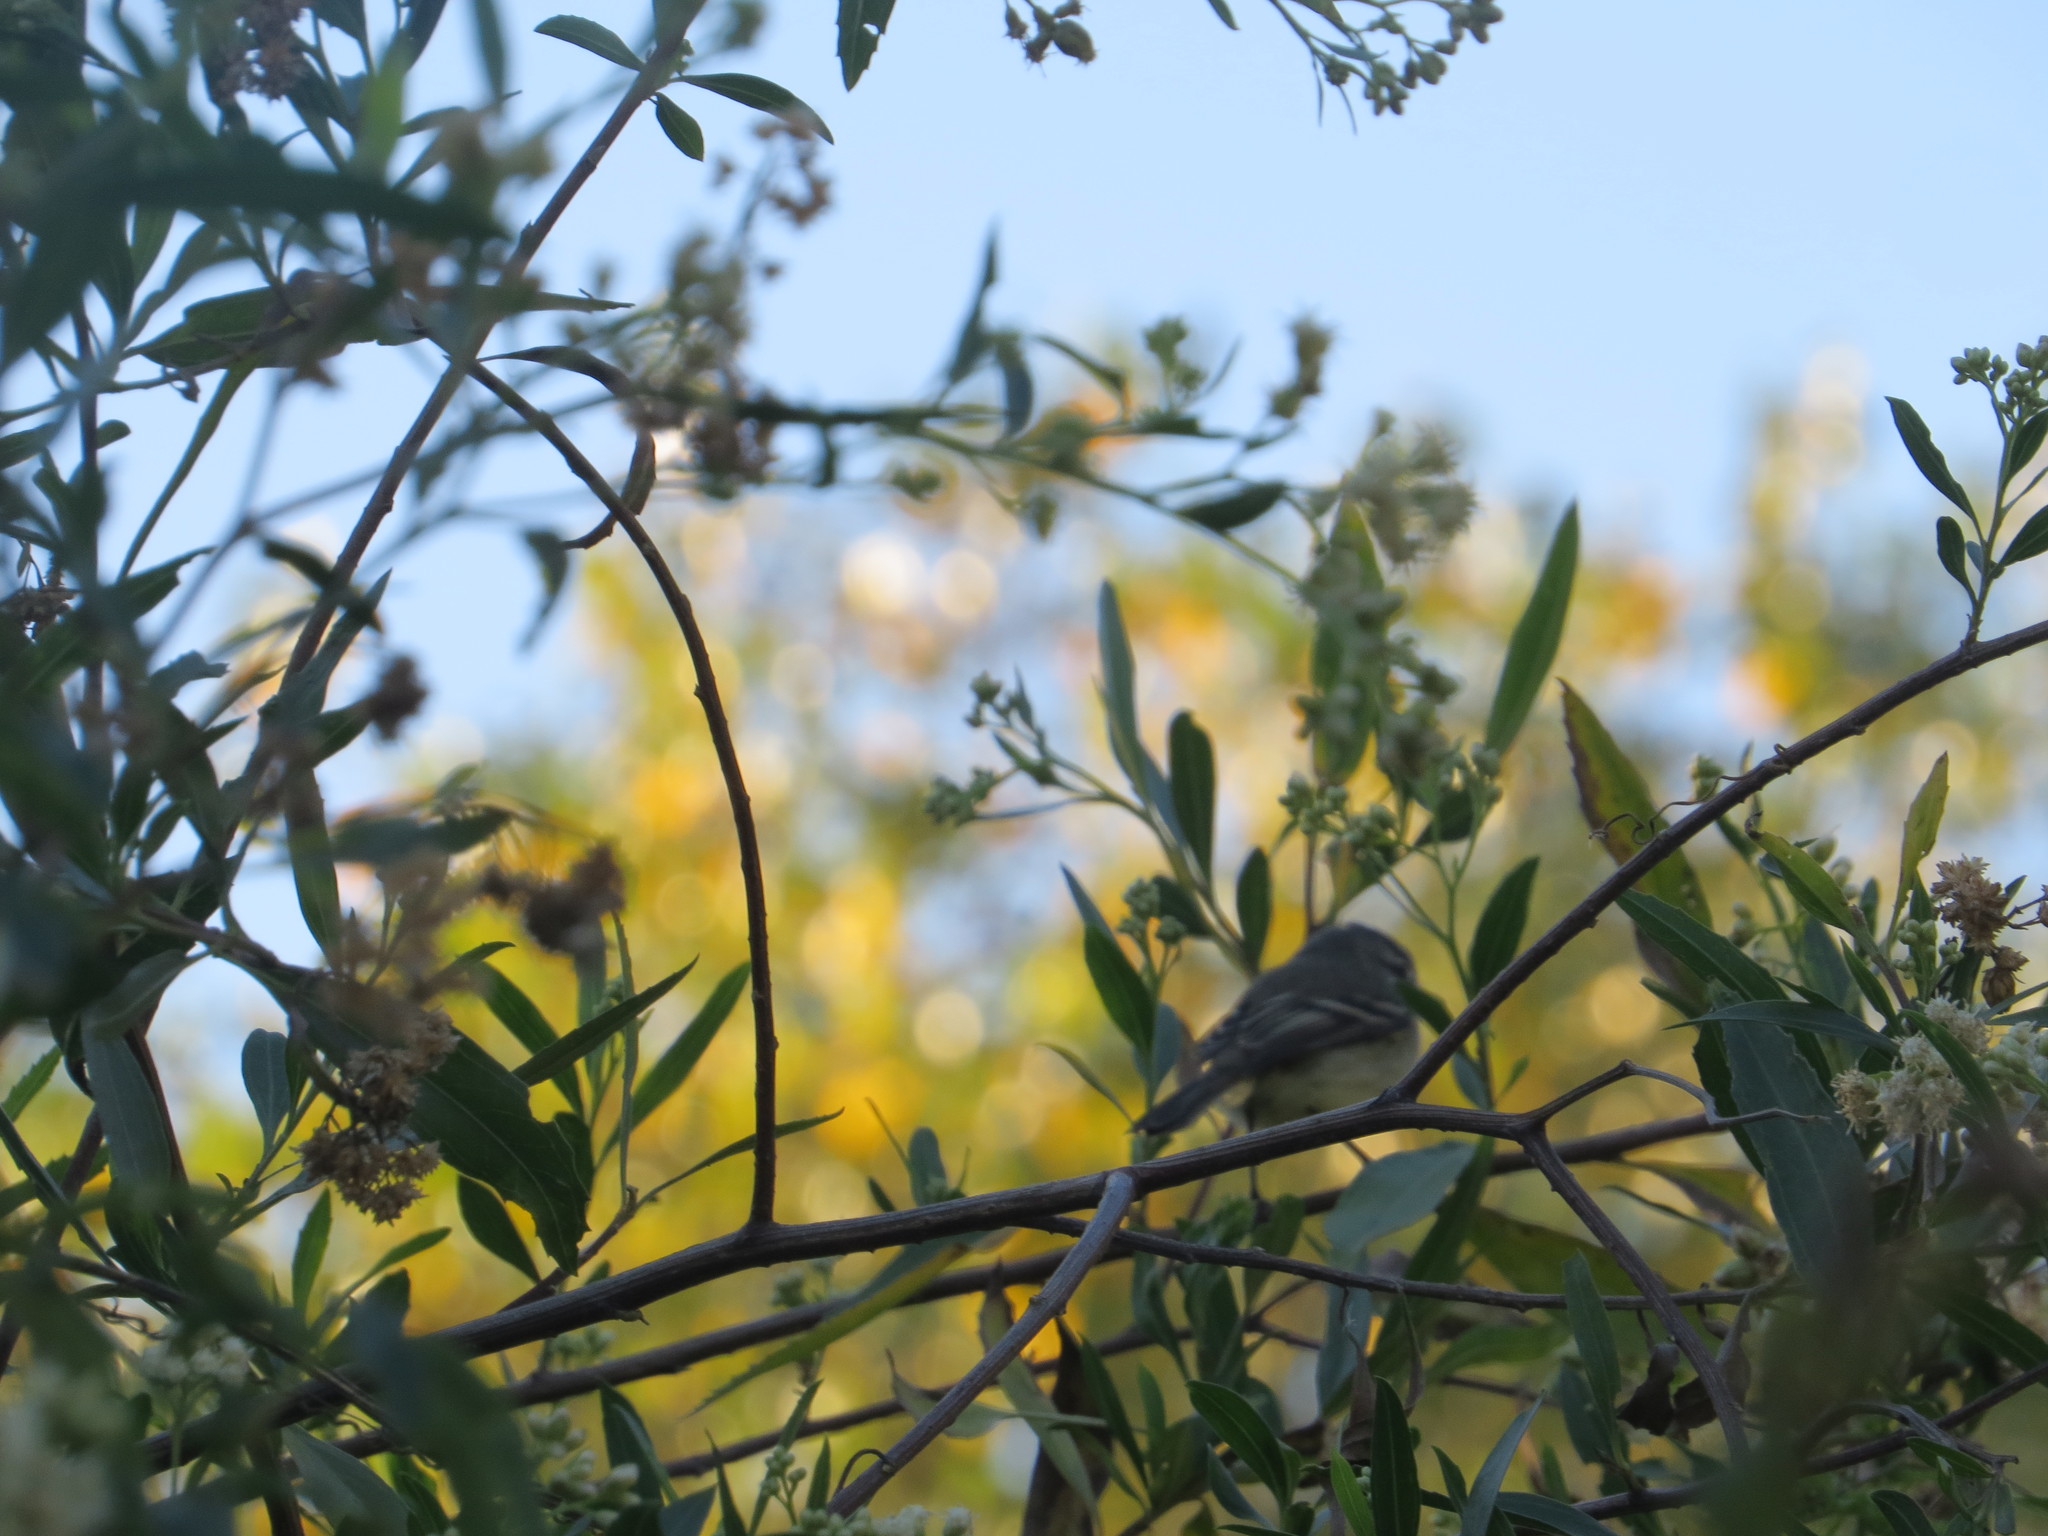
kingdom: Animalia
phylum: Chordata
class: Aves
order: Passeriformes
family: Tyrannidae
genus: Serpophaga
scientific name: Serpophaga subcristata
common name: White-crested tyrannulet
